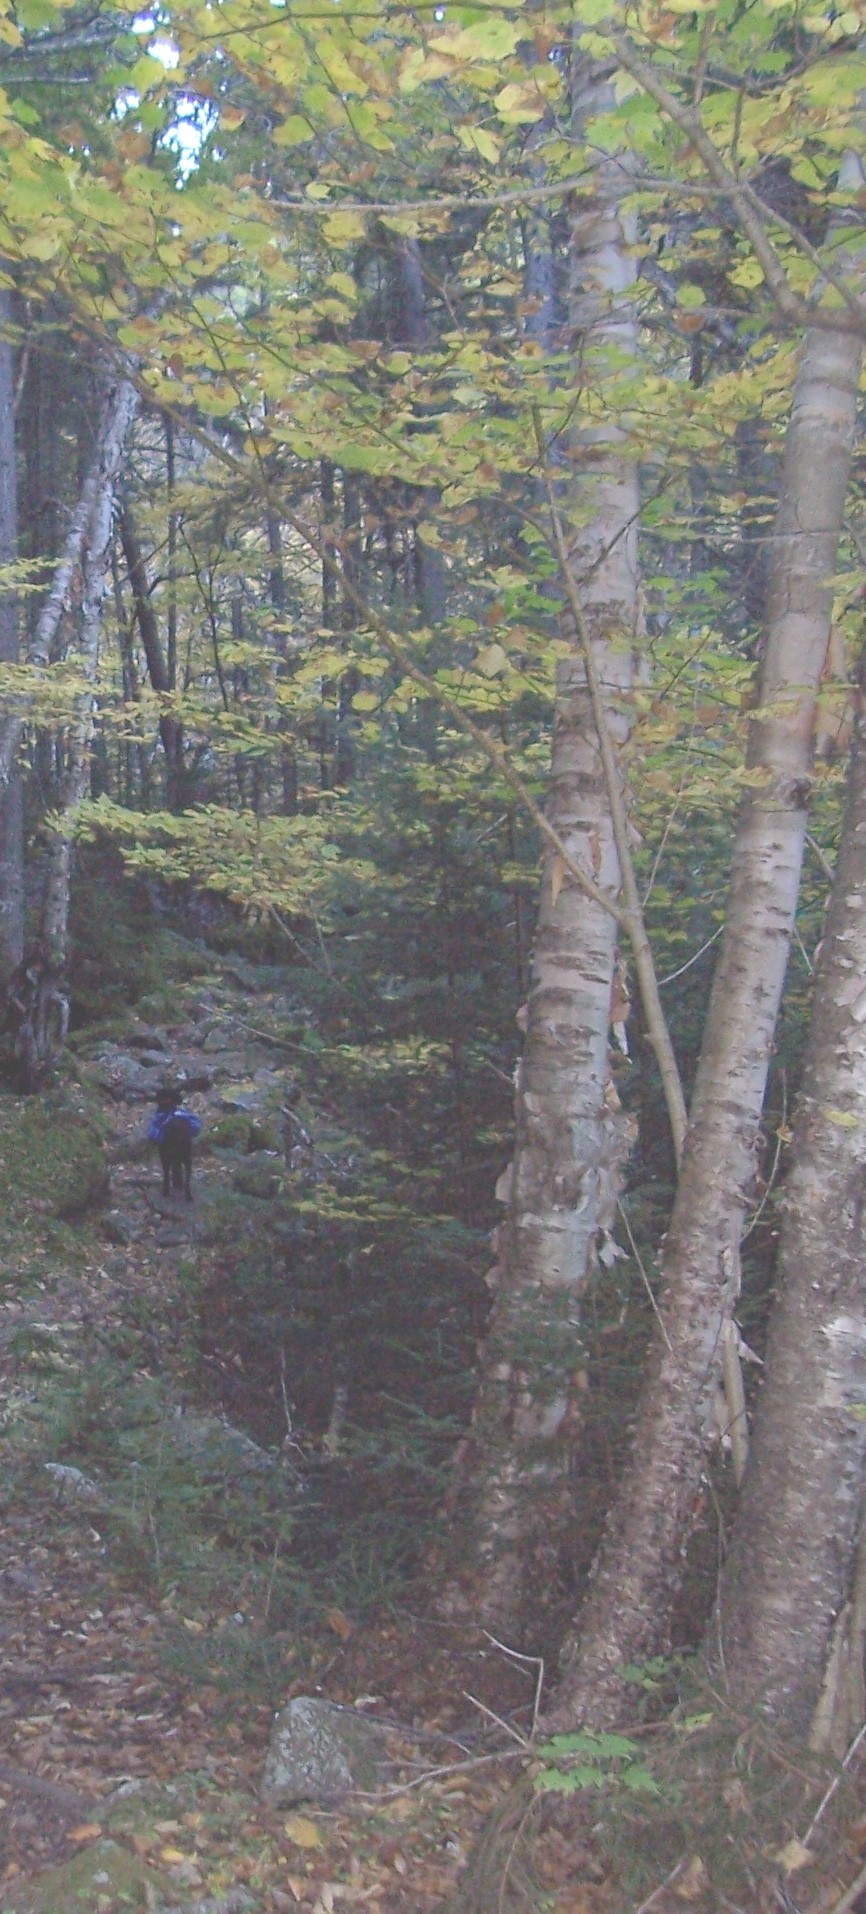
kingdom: Plantae
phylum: Tracheophyta
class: Magnoliopsida
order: Fagales
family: Betulaceae
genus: Betula
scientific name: Betula alleghaniensis
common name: Yellow birch
